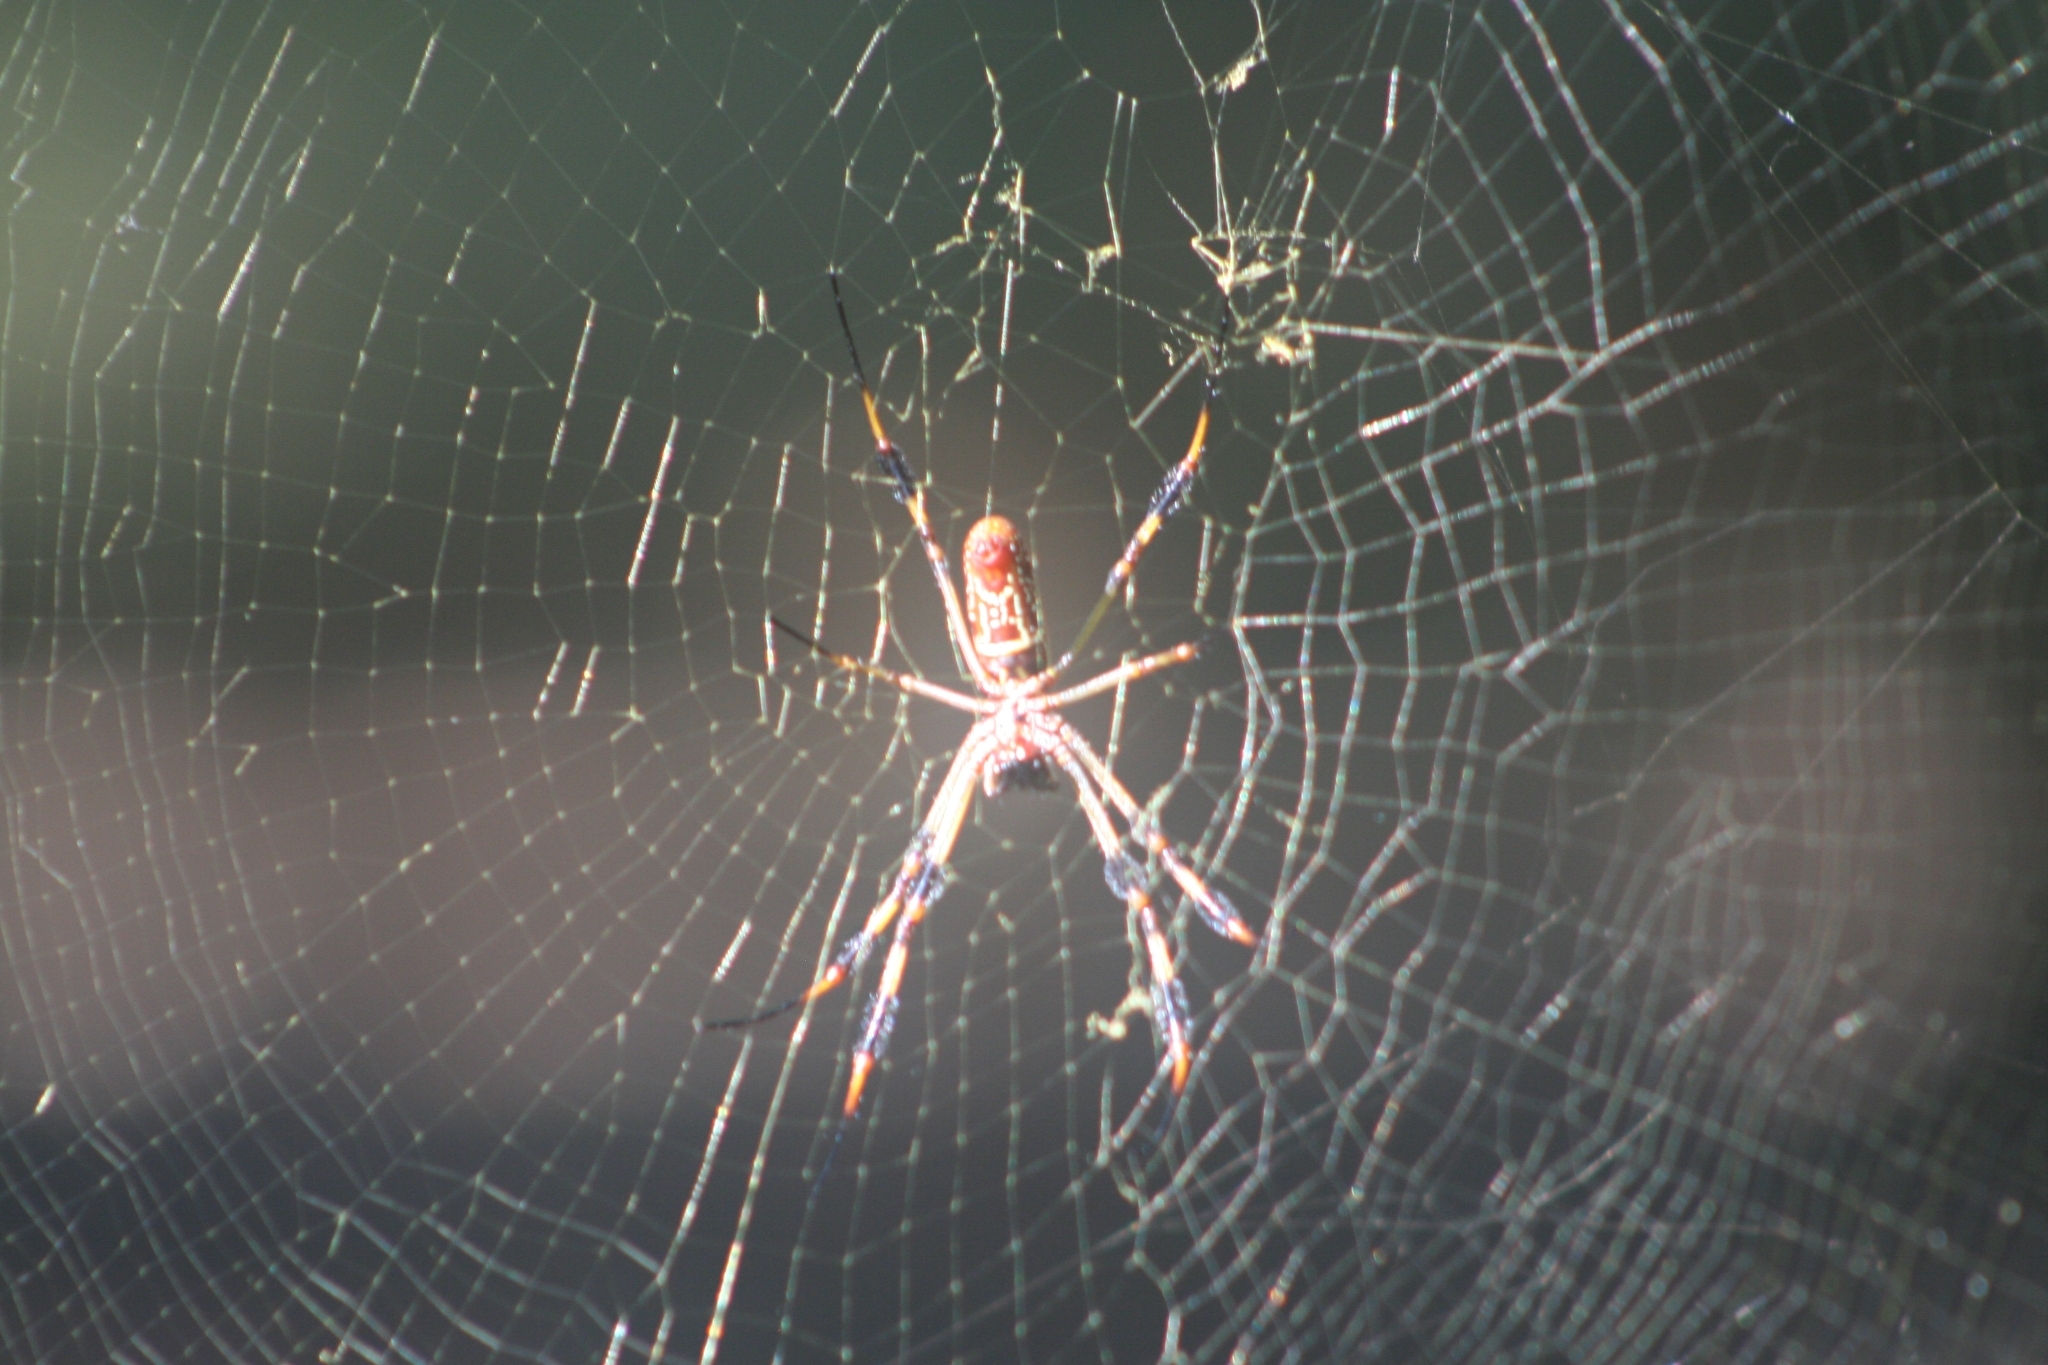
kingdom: Animalia
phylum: Arthropoda
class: Arachnida
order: Araneae
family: Araneidae
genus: Trichonephila
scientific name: Trichonephila clavipes
